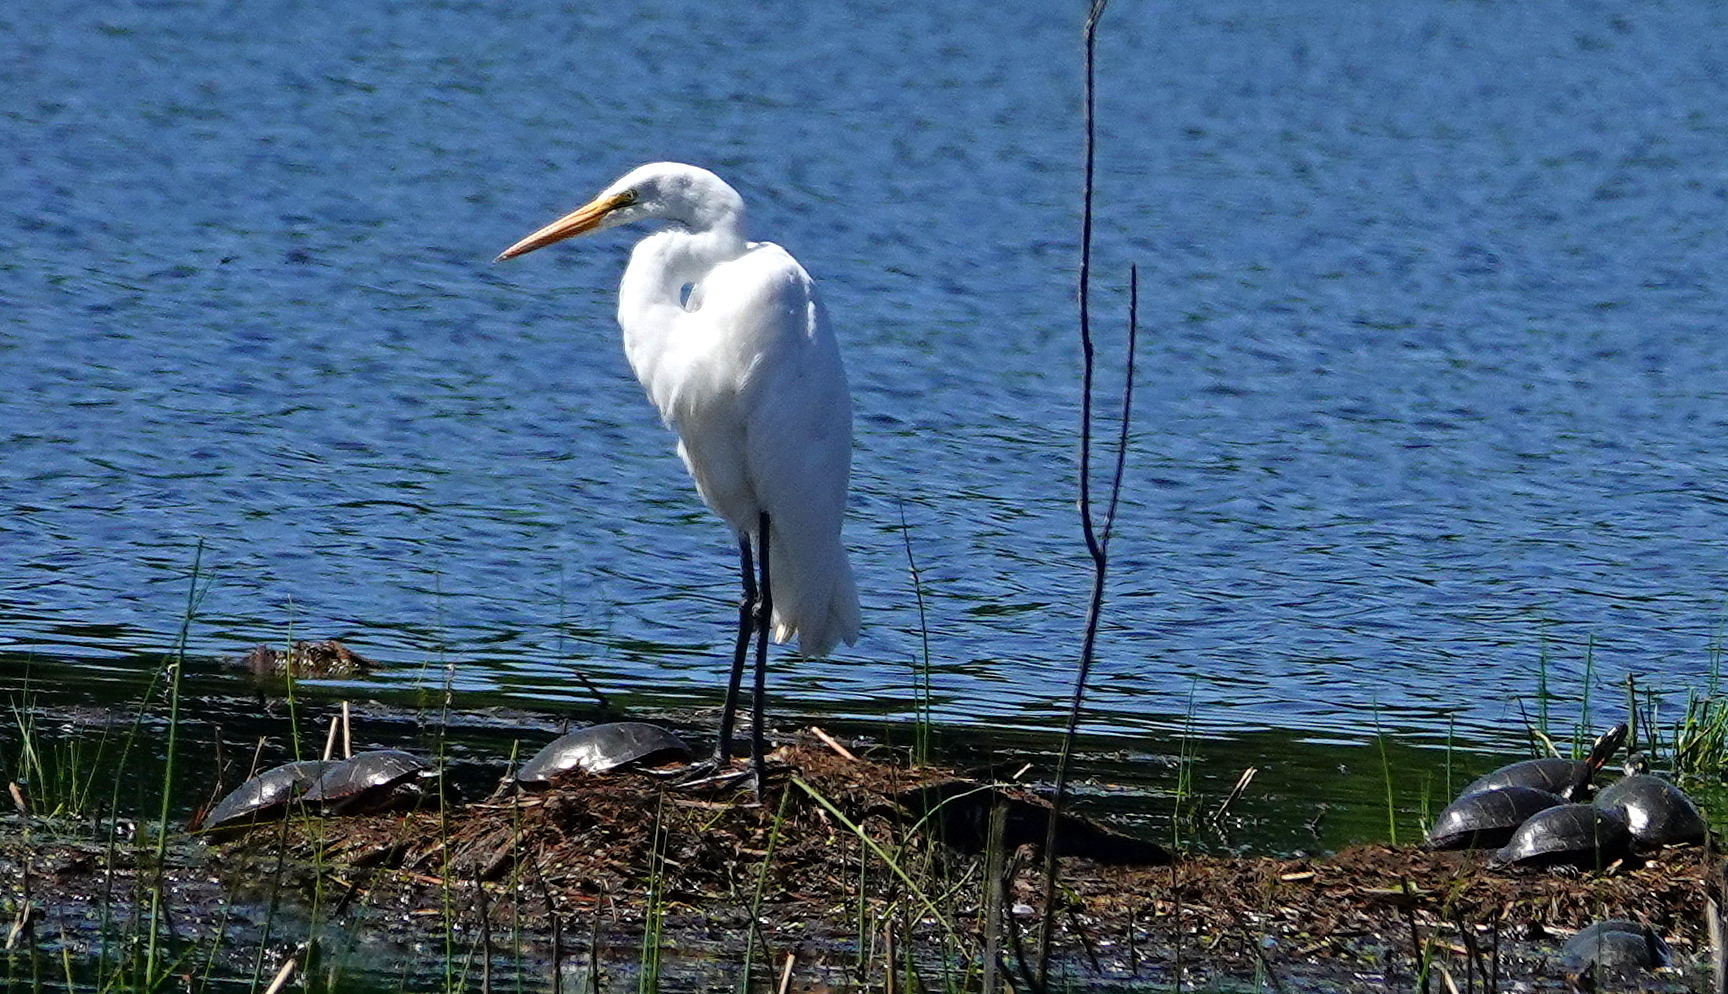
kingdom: Animalia
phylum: Chordata
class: Aves
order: Pelecaniformes
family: Ardeidae
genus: Ardea
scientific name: Ardea alba
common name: Great egret
